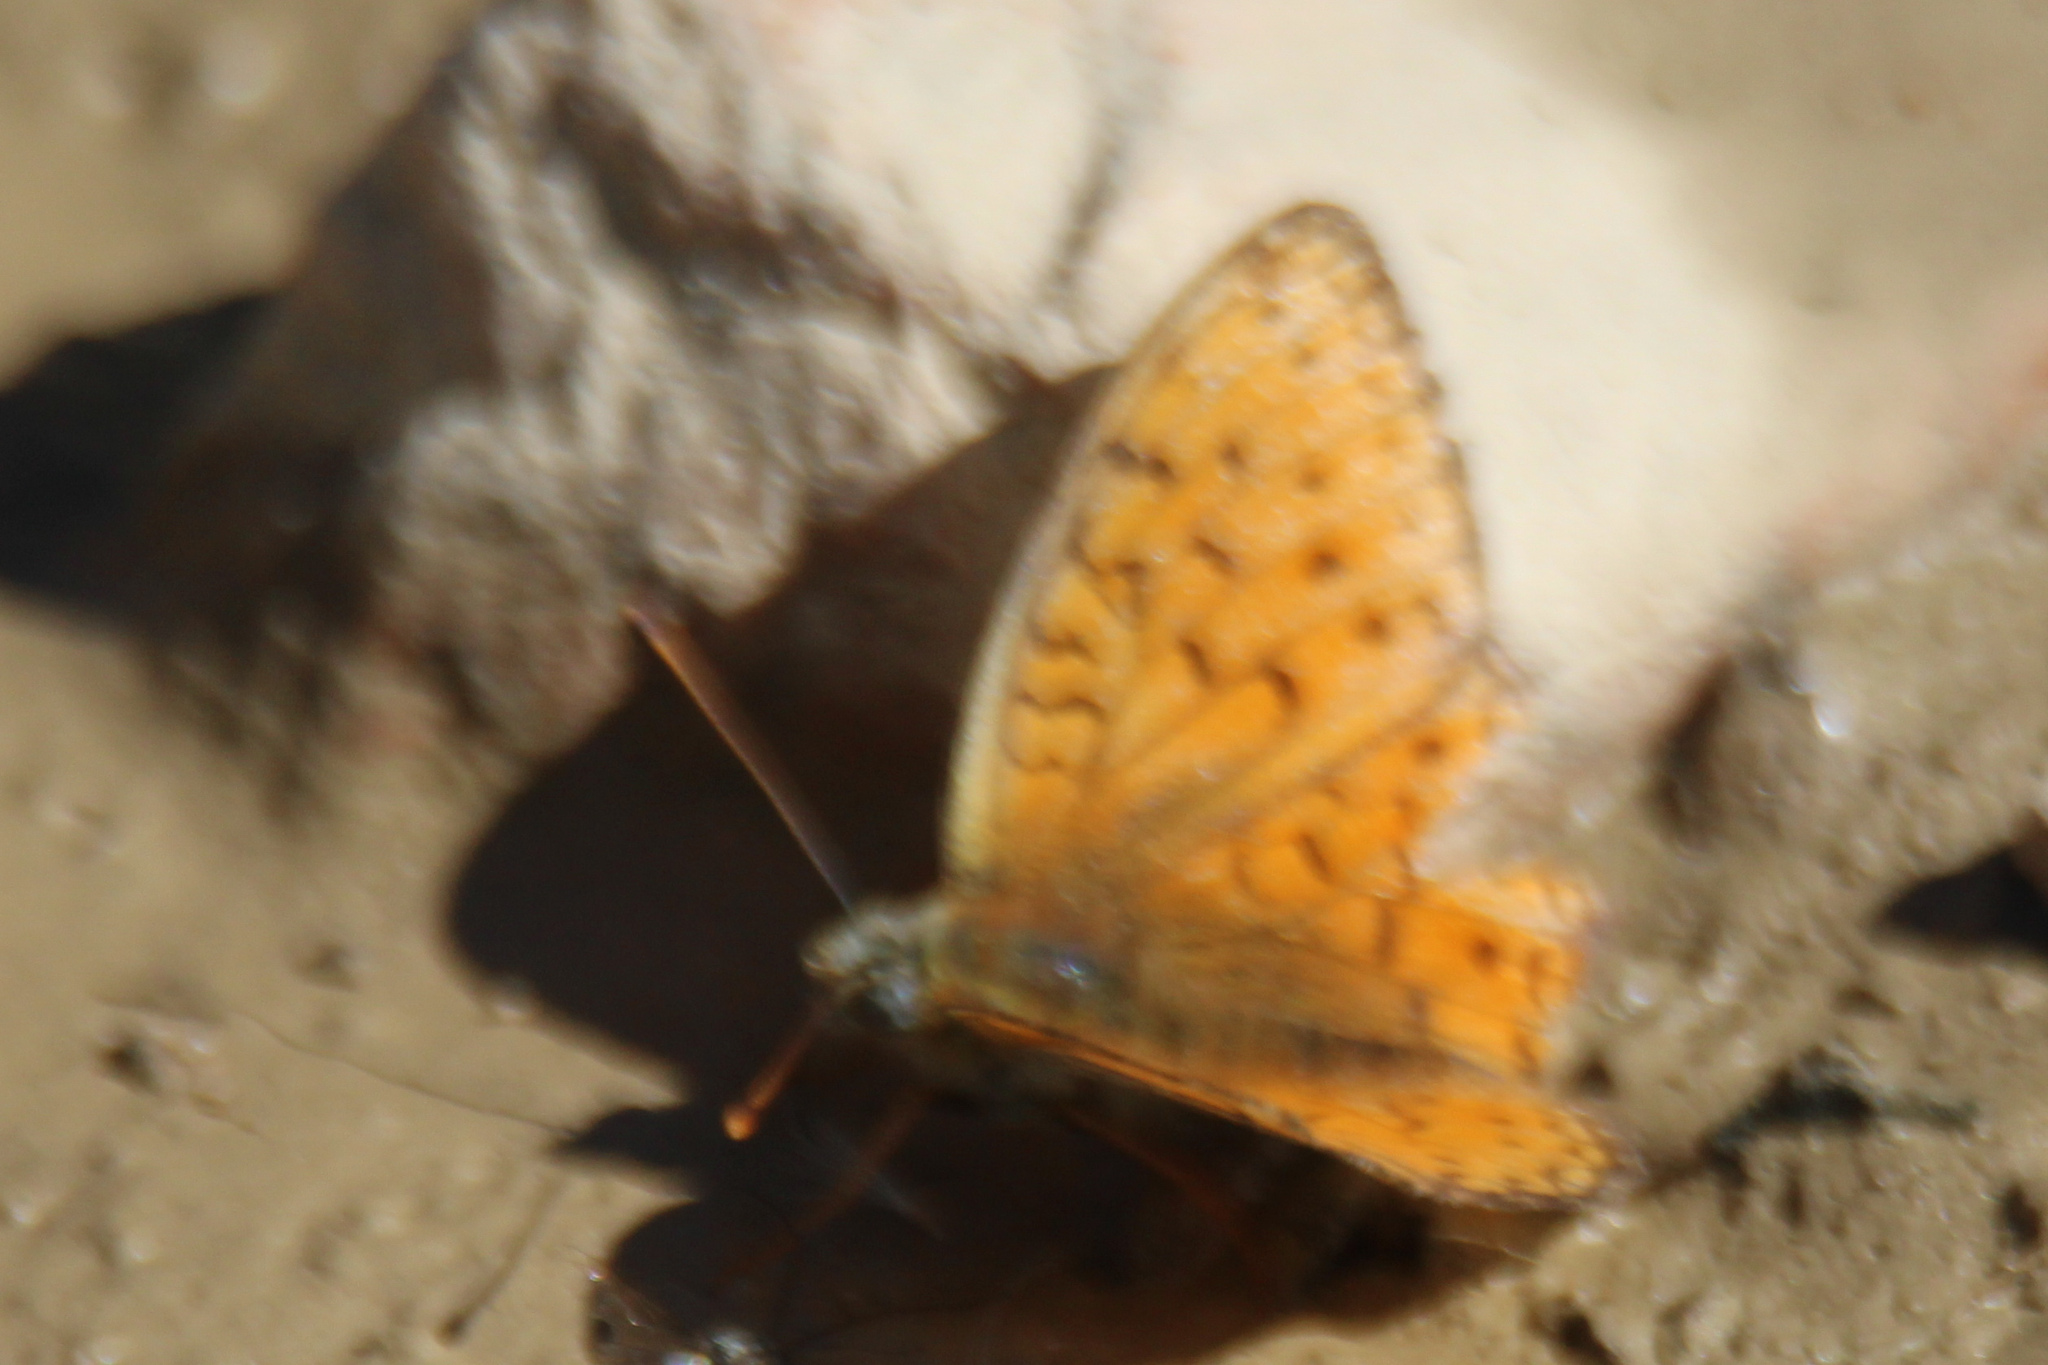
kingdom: Animalia
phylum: Arthropoda
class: Insecta
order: Lepidoptera
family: Nymphalidae
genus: Fabriciana
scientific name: Fabriciana niobe
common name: Niobe fritillary
